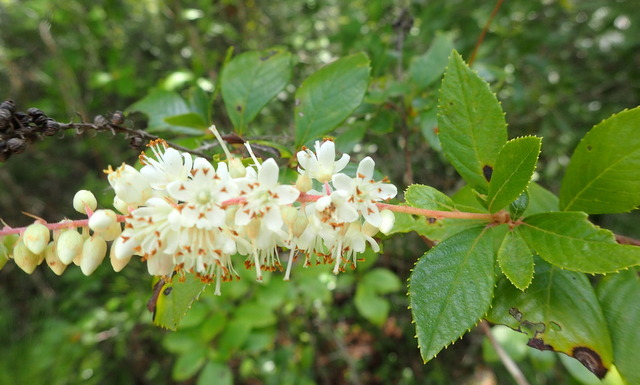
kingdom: Plantae
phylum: Tracheophyta
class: Magnoliopsida
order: Ericales
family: Clethraceae
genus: Clethra
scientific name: Clethra alnifolia
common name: Sweet pepperbush
